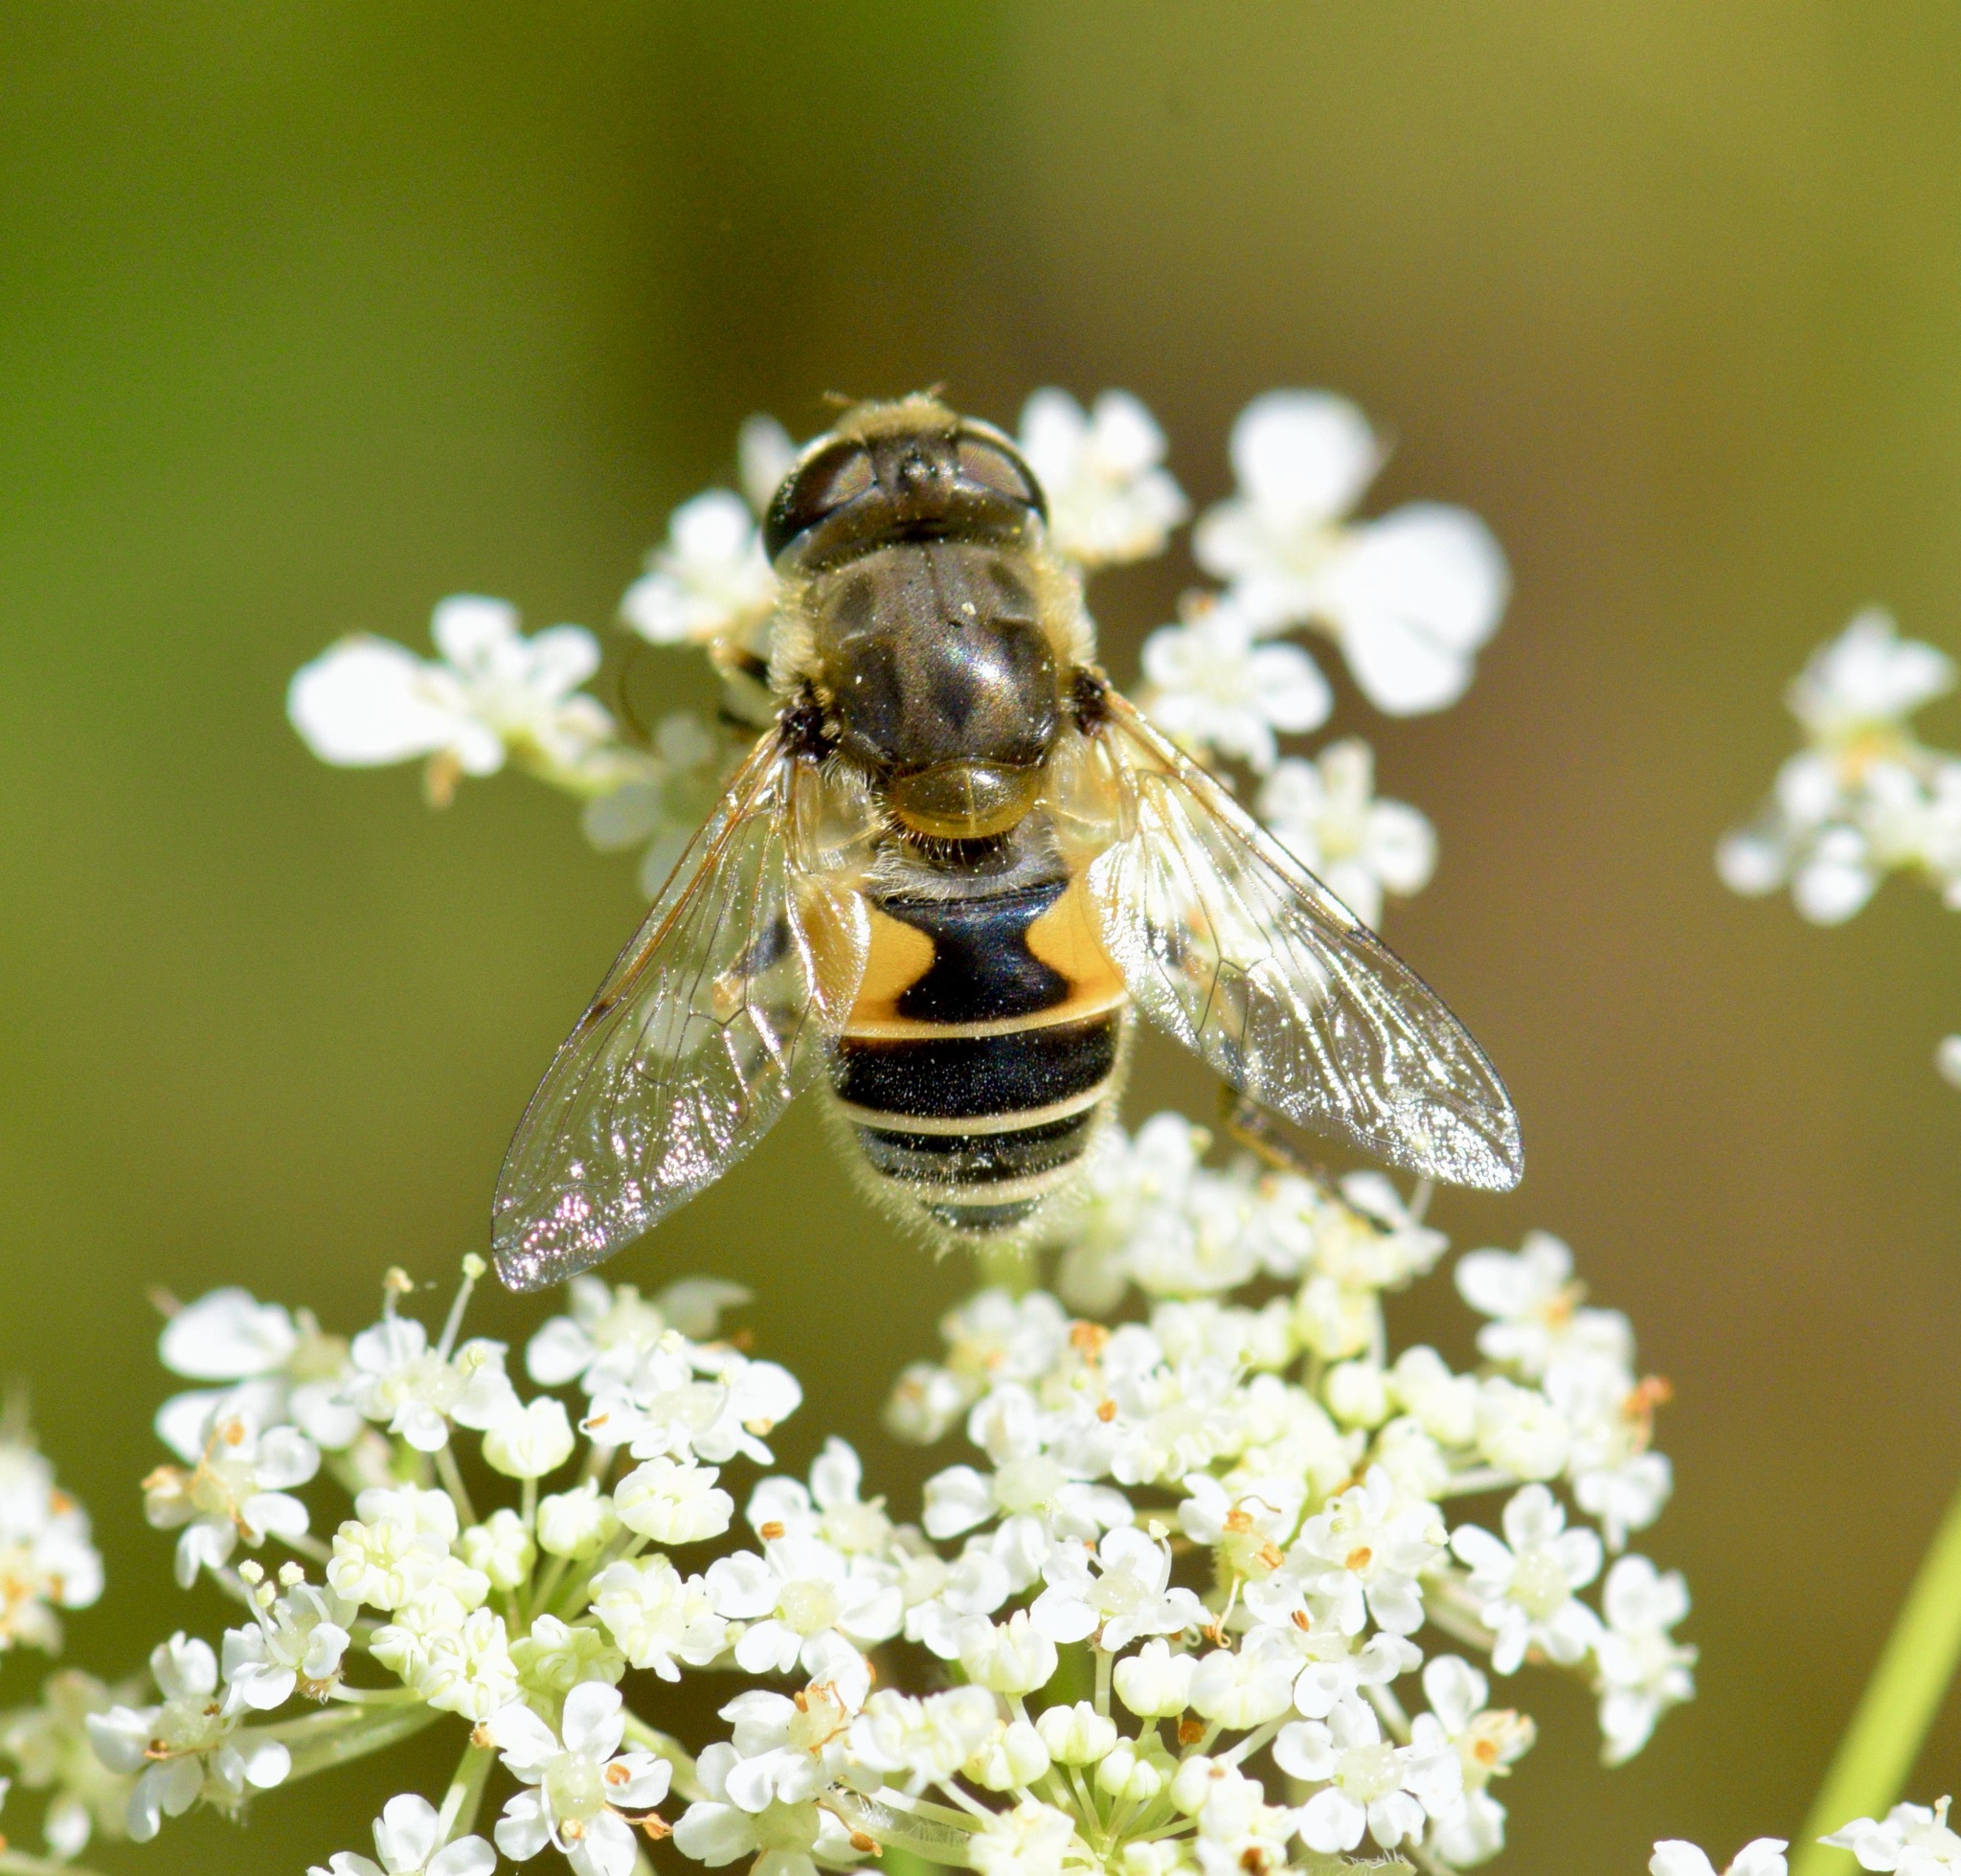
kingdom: Animalia
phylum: Arthropoda
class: Insecta
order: Diptera
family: Syrphidae
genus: Eristalis
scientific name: Eristalis arbustorum
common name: Hover fly
